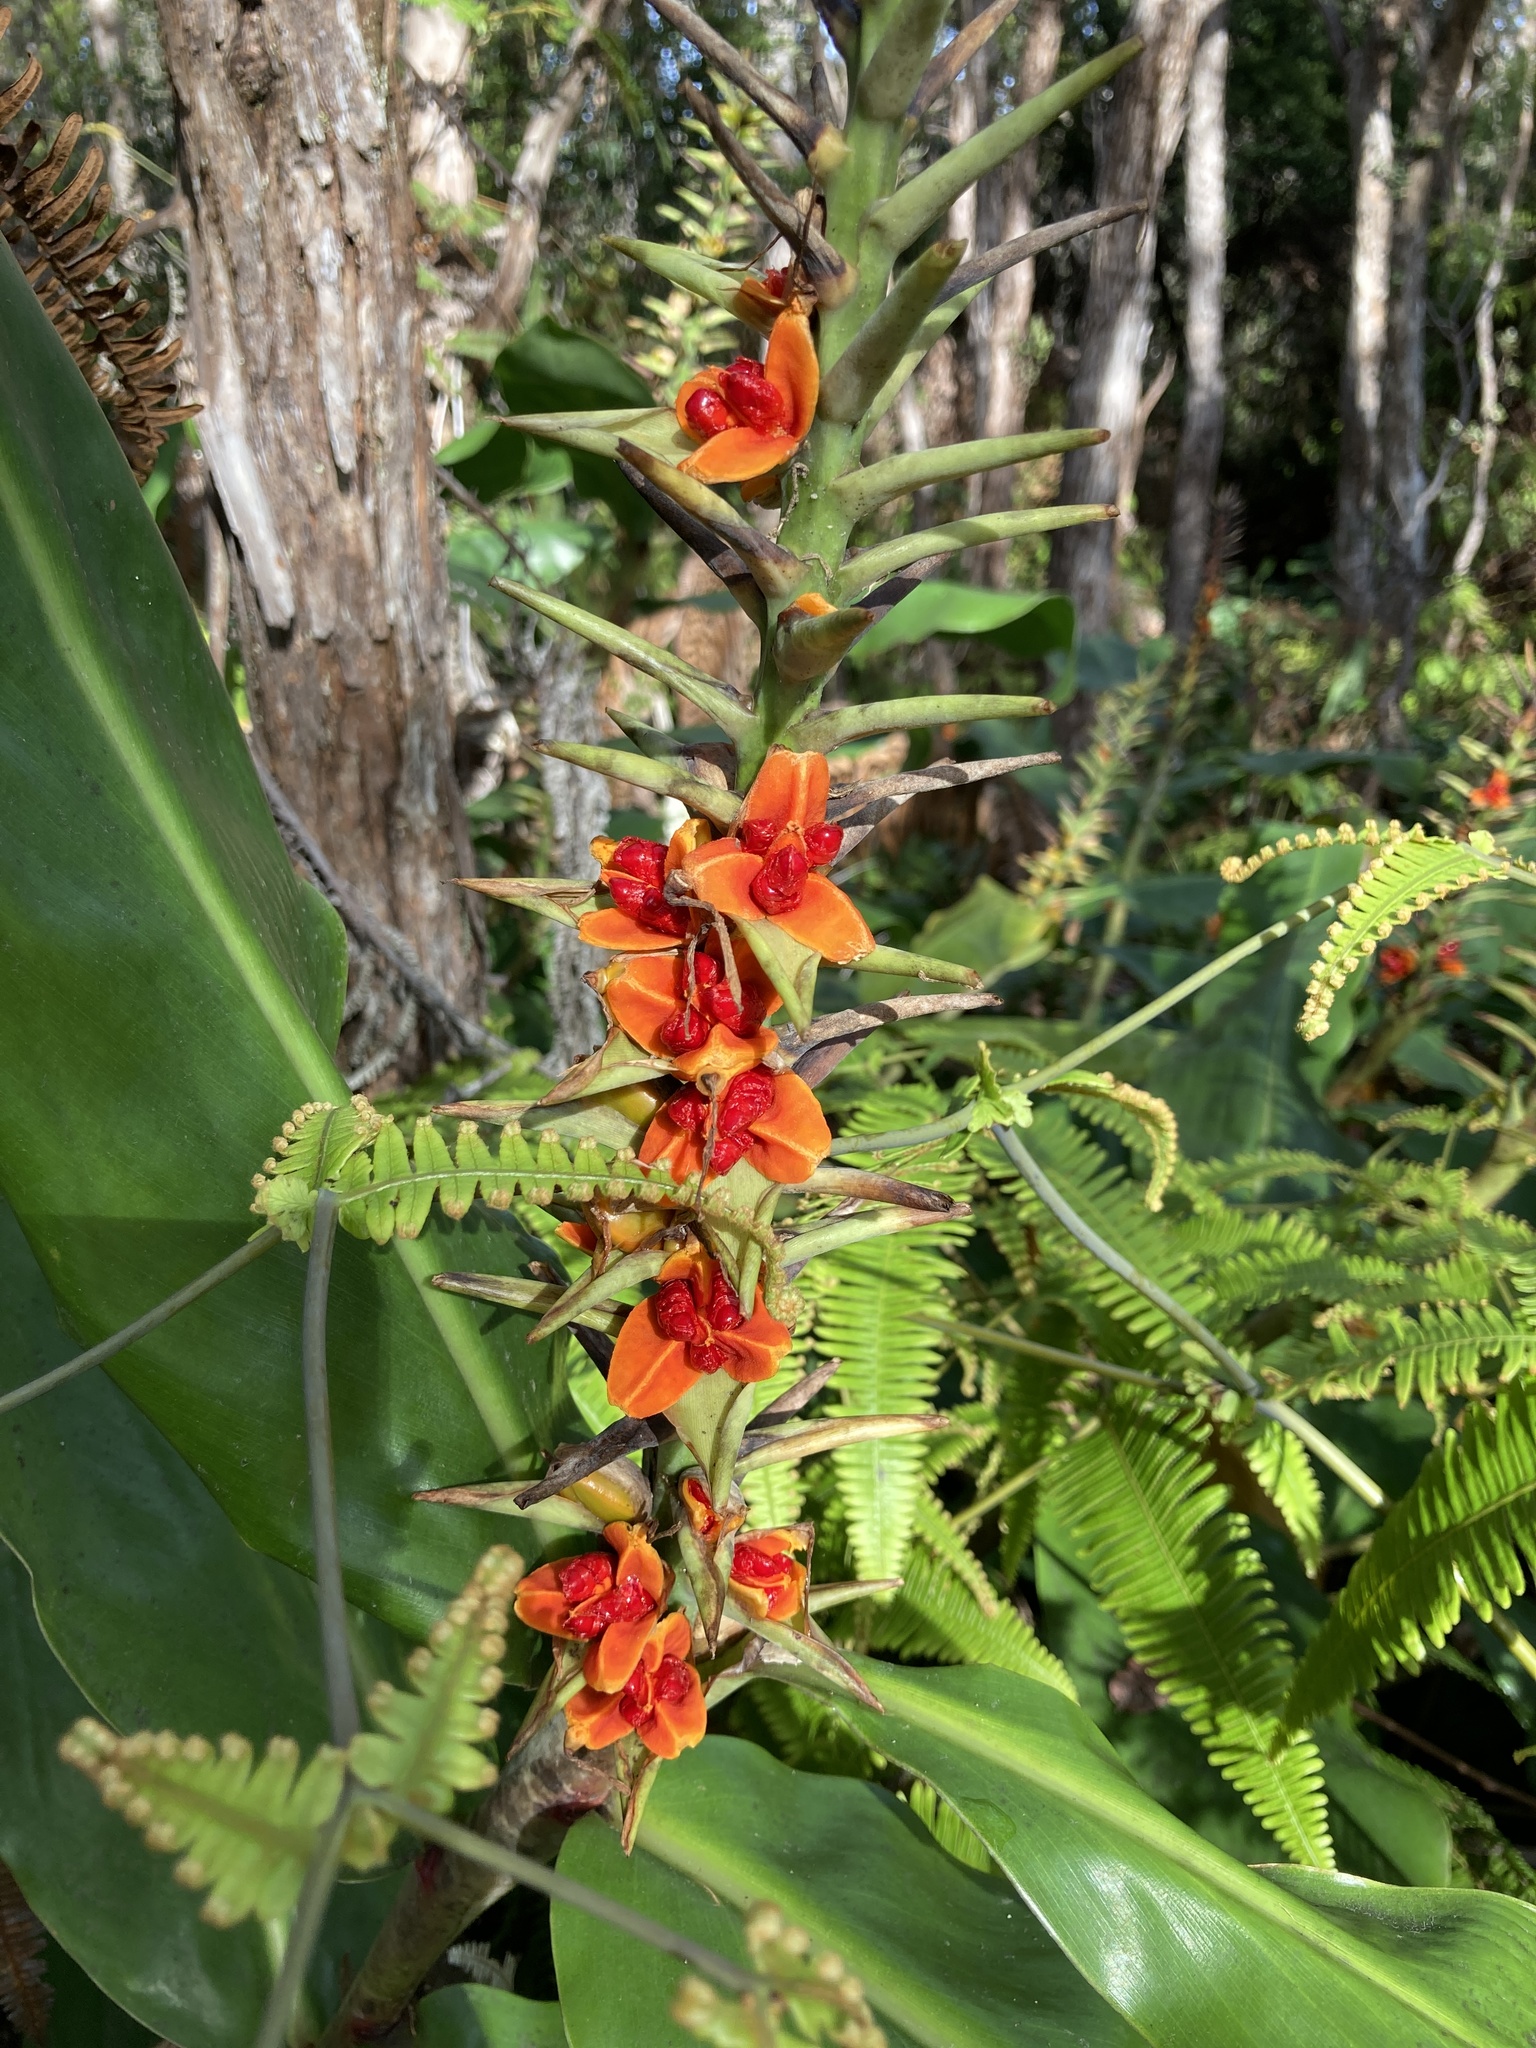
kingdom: Plantae
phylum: Tracheophyta
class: Liliopsida
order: Zingiberales
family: Zingiberaceae
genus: Hedychium
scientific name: Hedychium gardnerianum
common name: Himalayan ginger
